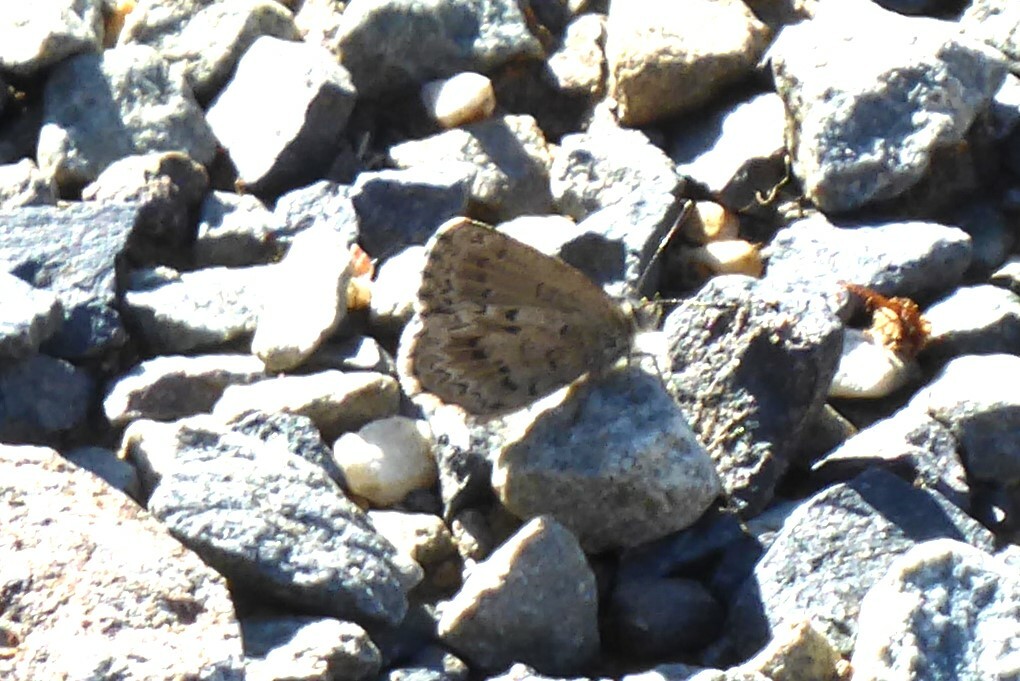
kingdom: Animalia
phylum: Arthropoda
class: Insecta
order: Lepidoptera
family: Lycaenidae
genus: Zizina
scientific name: Zizina oxleyi
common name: Southern blue
